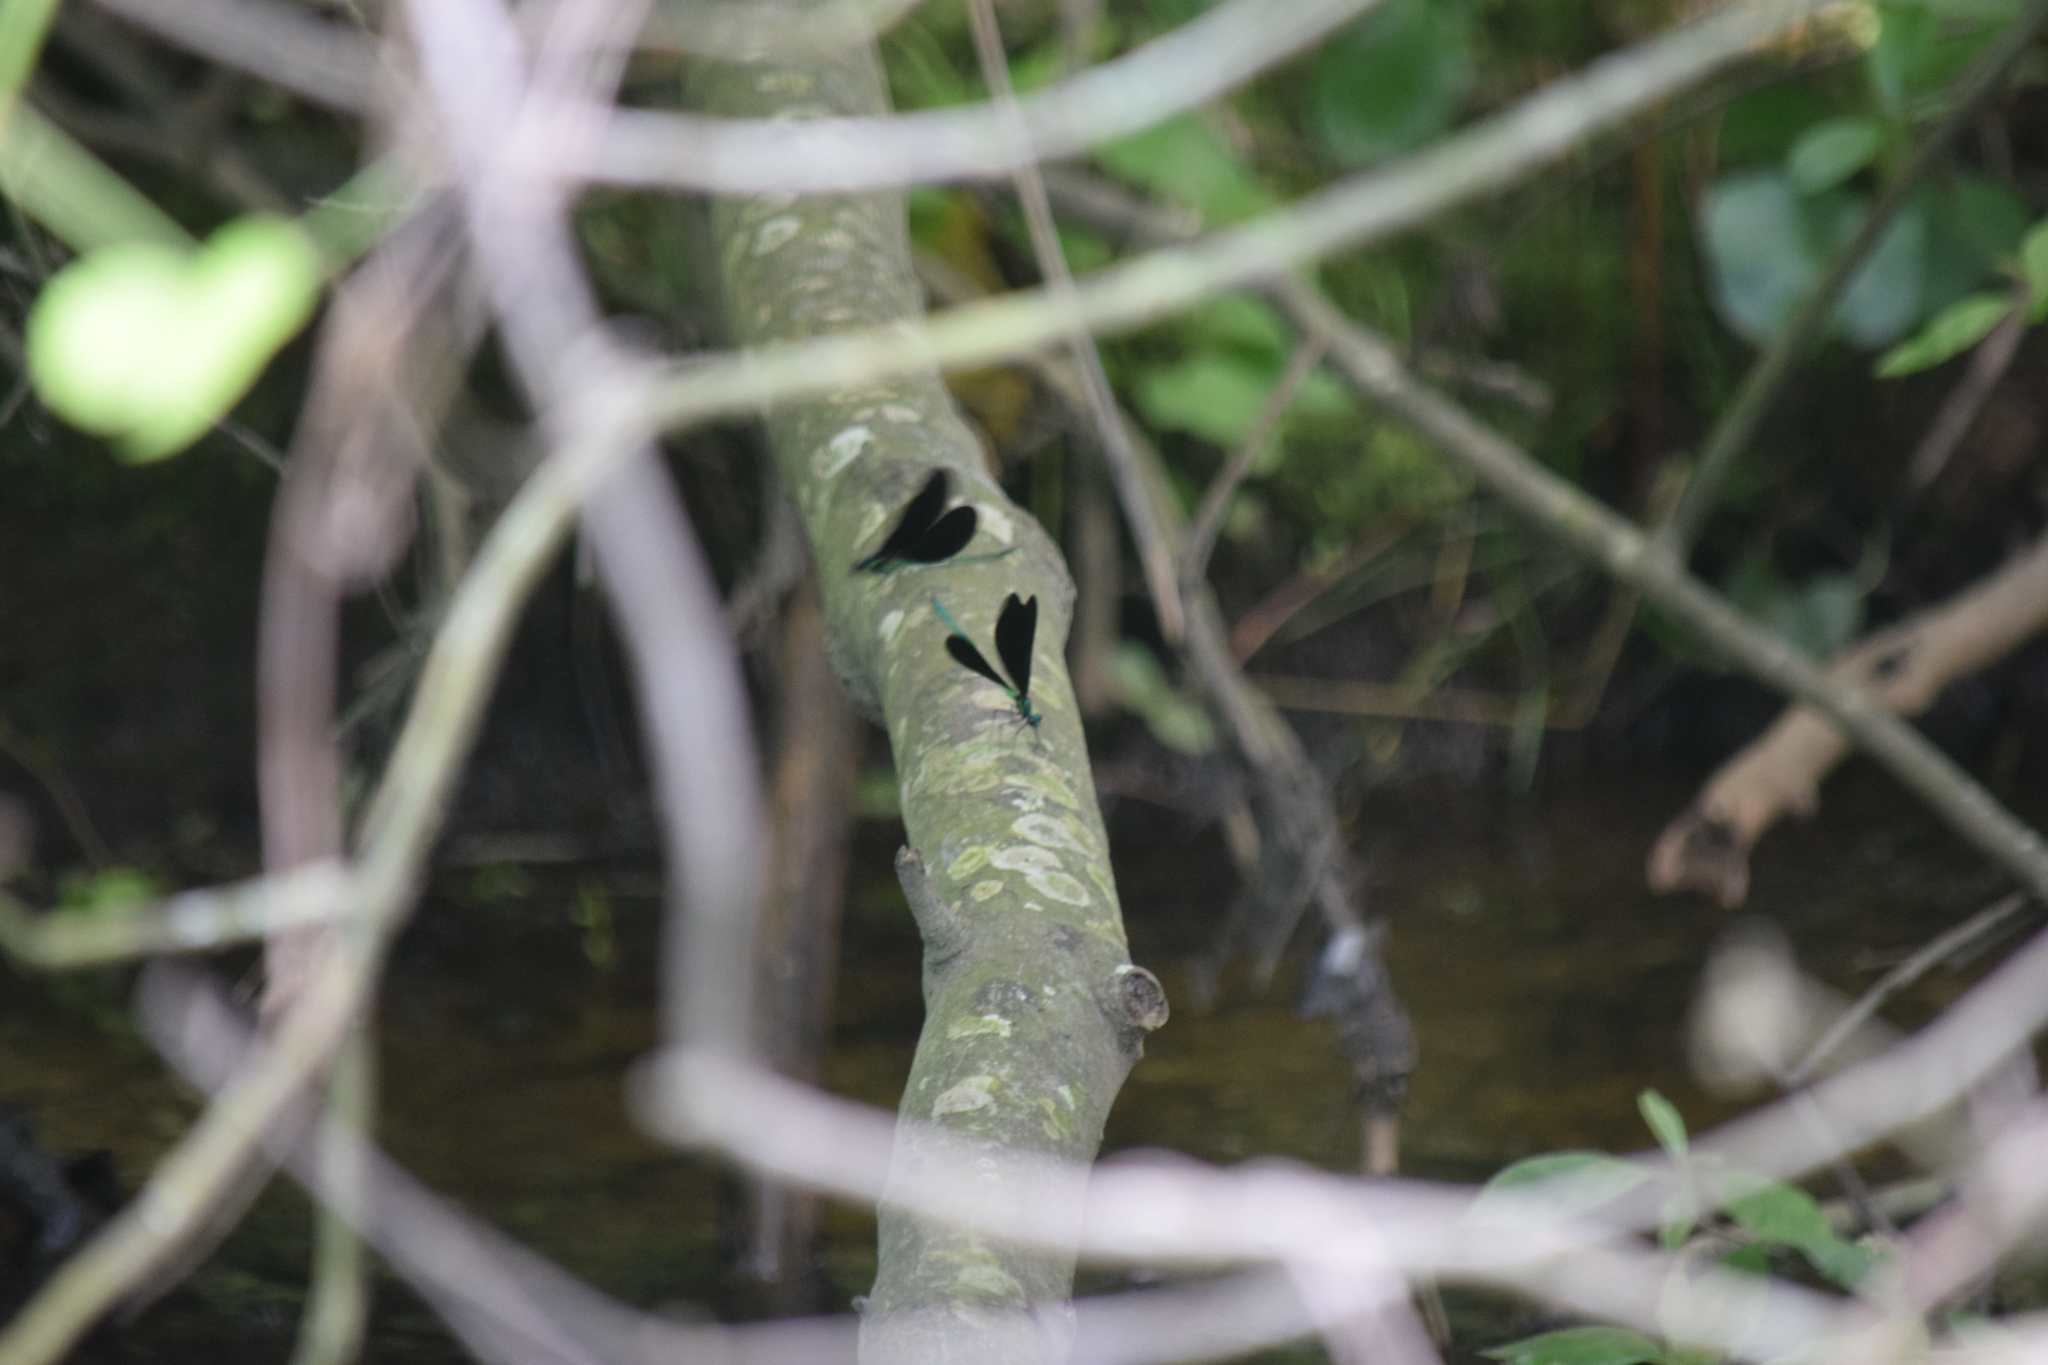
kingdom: Animalia
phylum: Arthropoda
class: Insecta
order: Odonata
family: Calopterygidae
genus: Calopteryx
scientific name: Calopteryx maculata
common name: Ebony jewelwing
